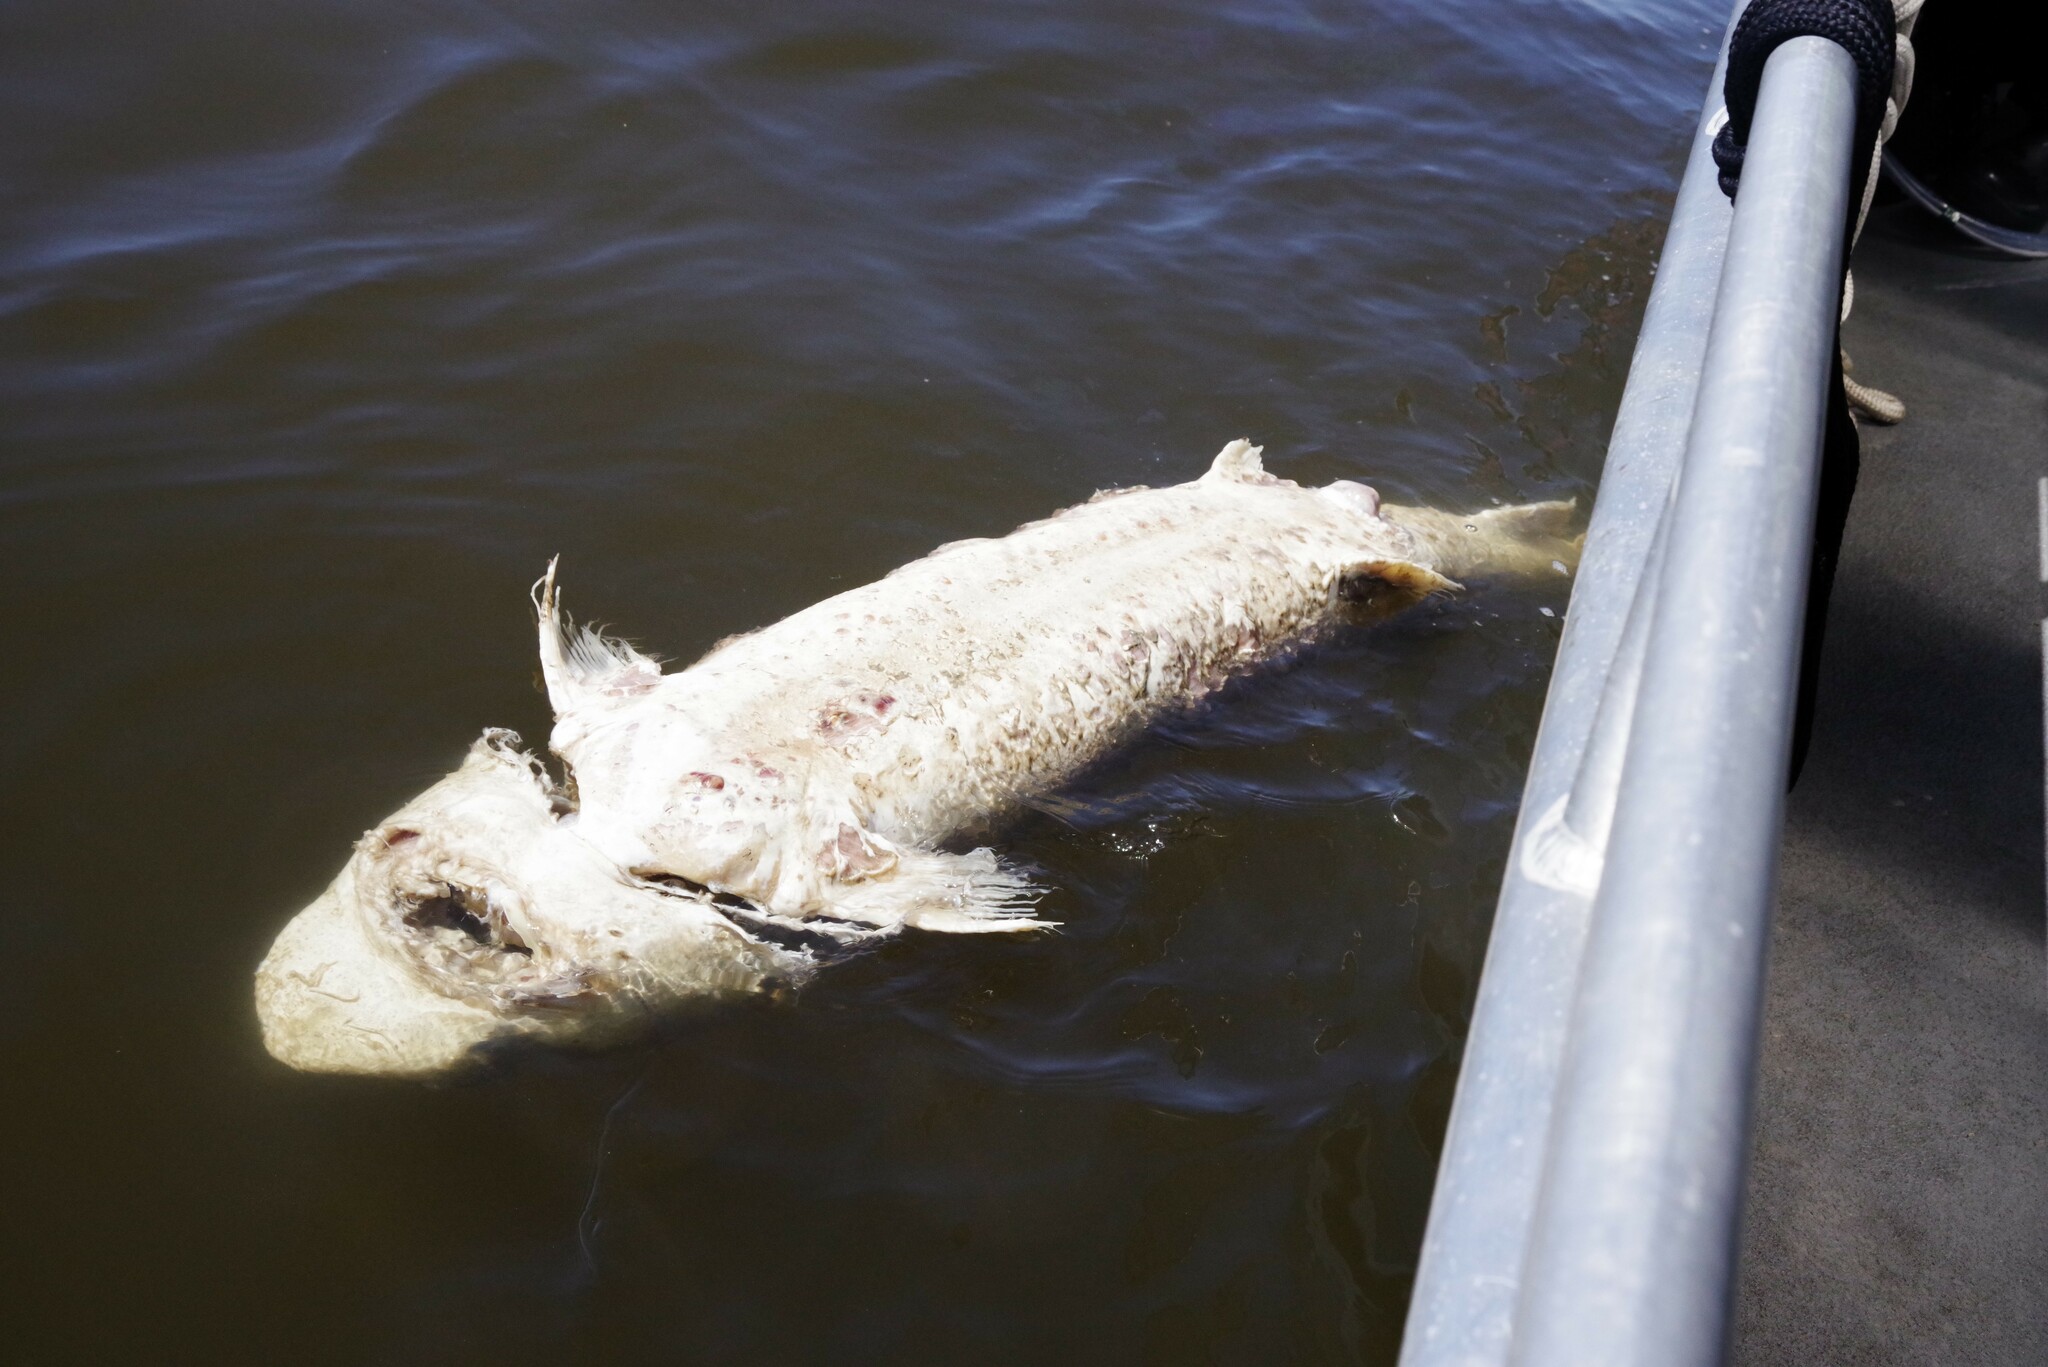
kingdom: Animalia
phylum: Chordata
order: Acipenseriformes
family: Acipenseridae
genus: Acipenser
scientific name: Acipenser transmontanus
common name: White sturgeon
